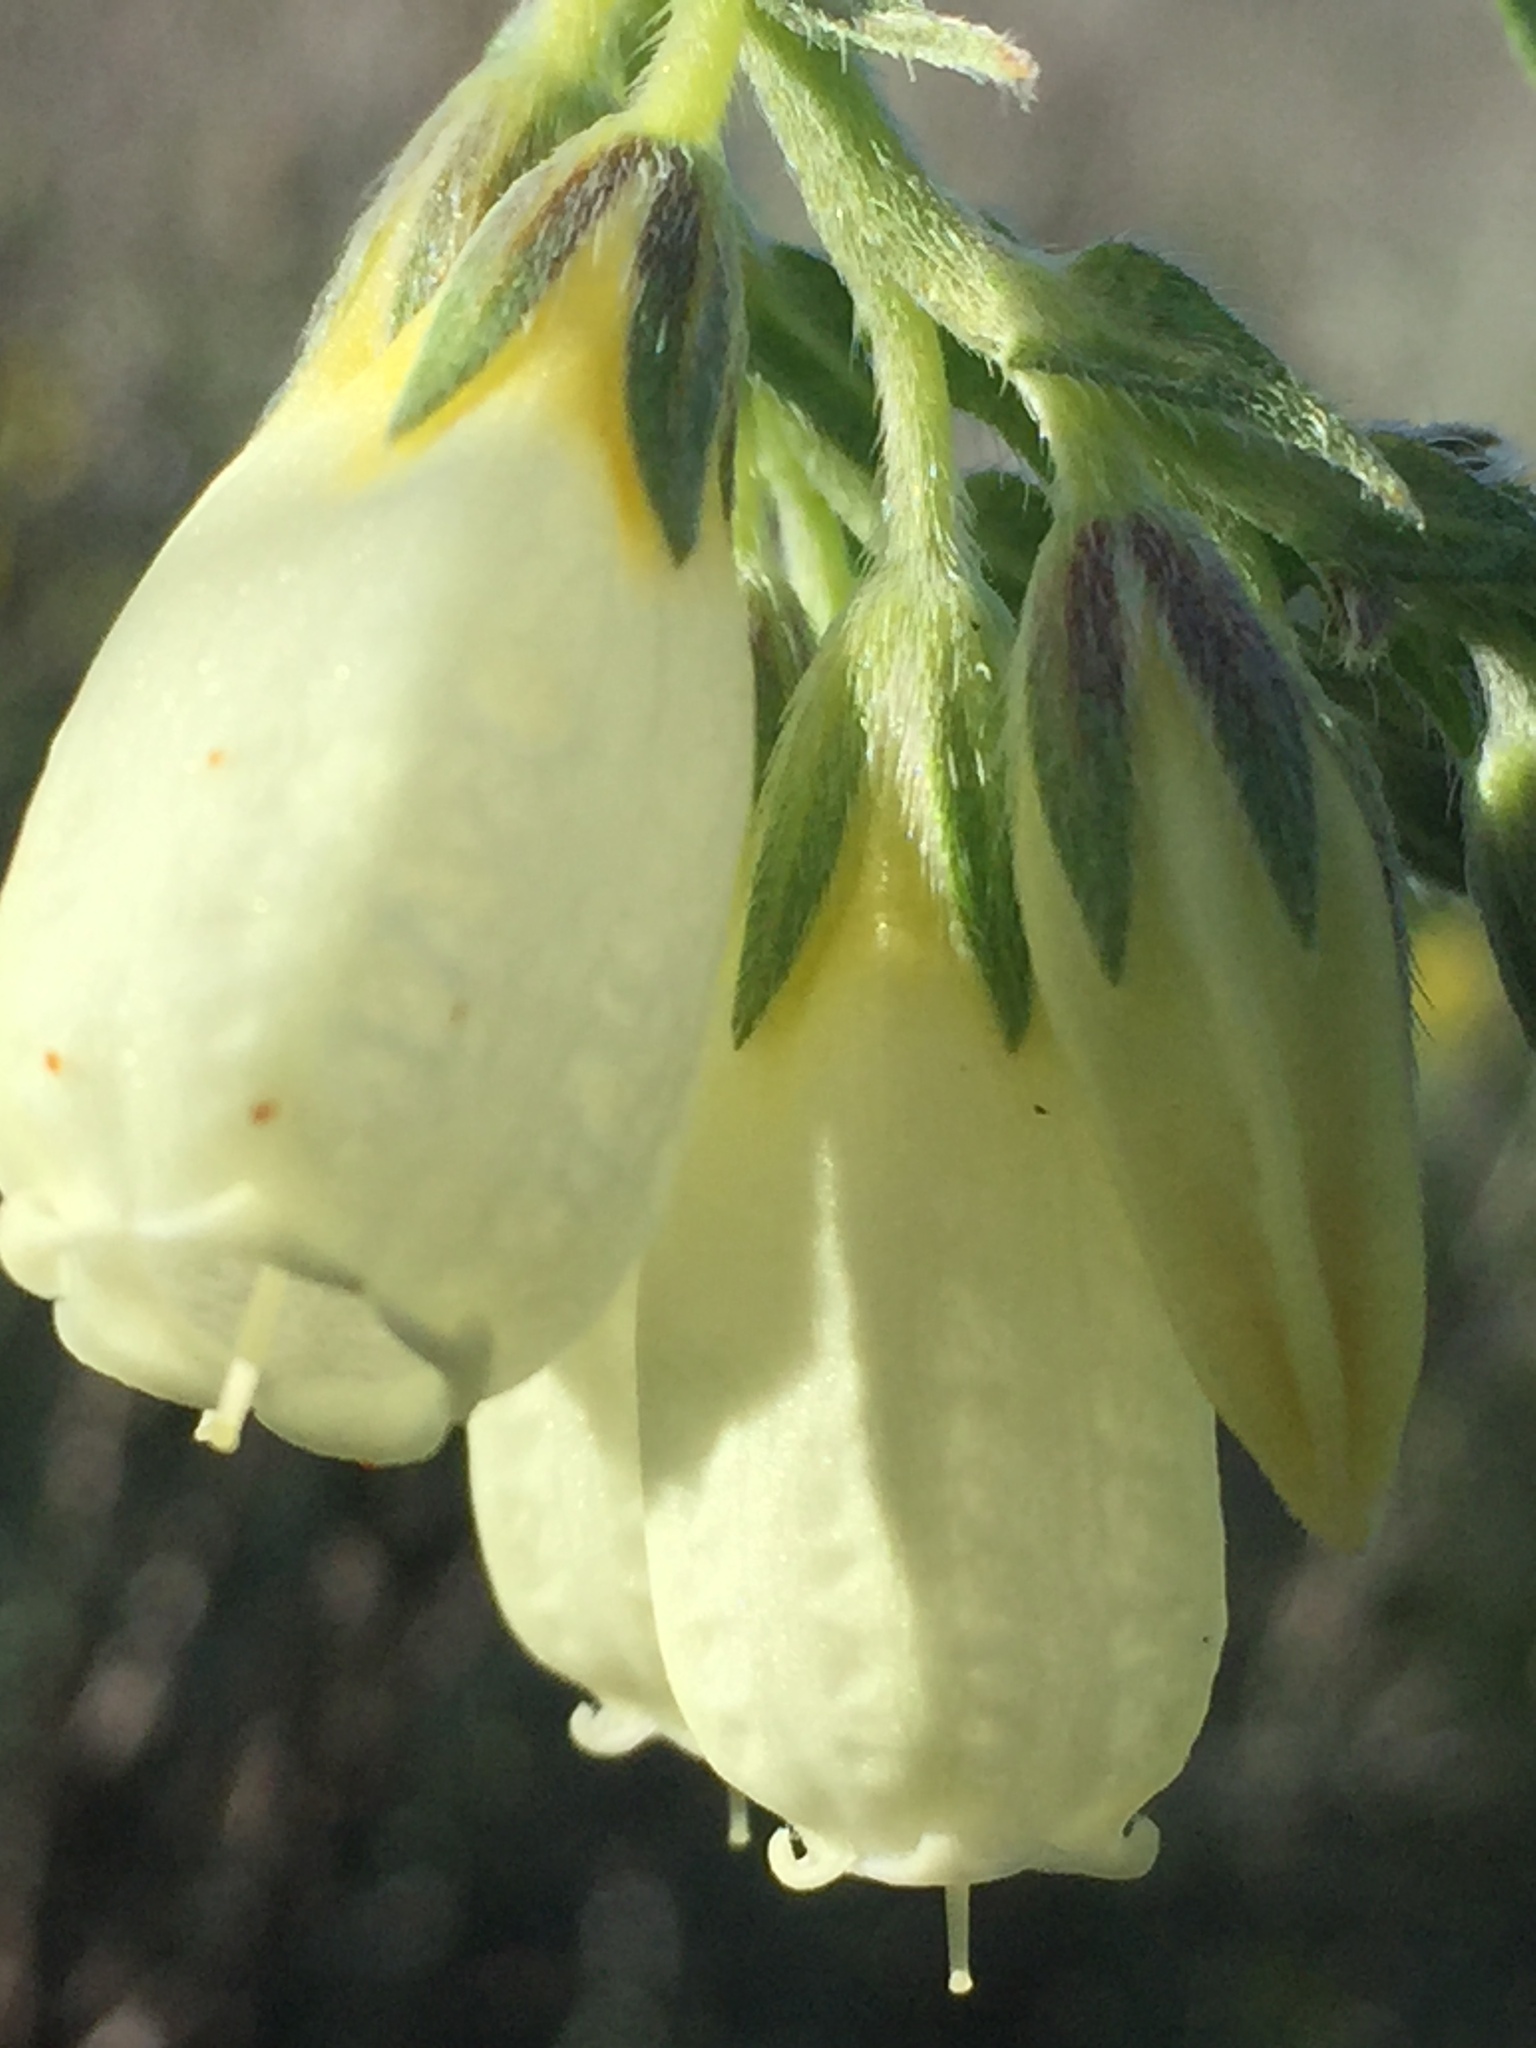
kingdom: Plantae
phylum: Tracheophyta
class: Magnoliopsida
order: Boraginales
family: Boraginaceae
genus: Onosma
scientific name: Onosma simplicissima
